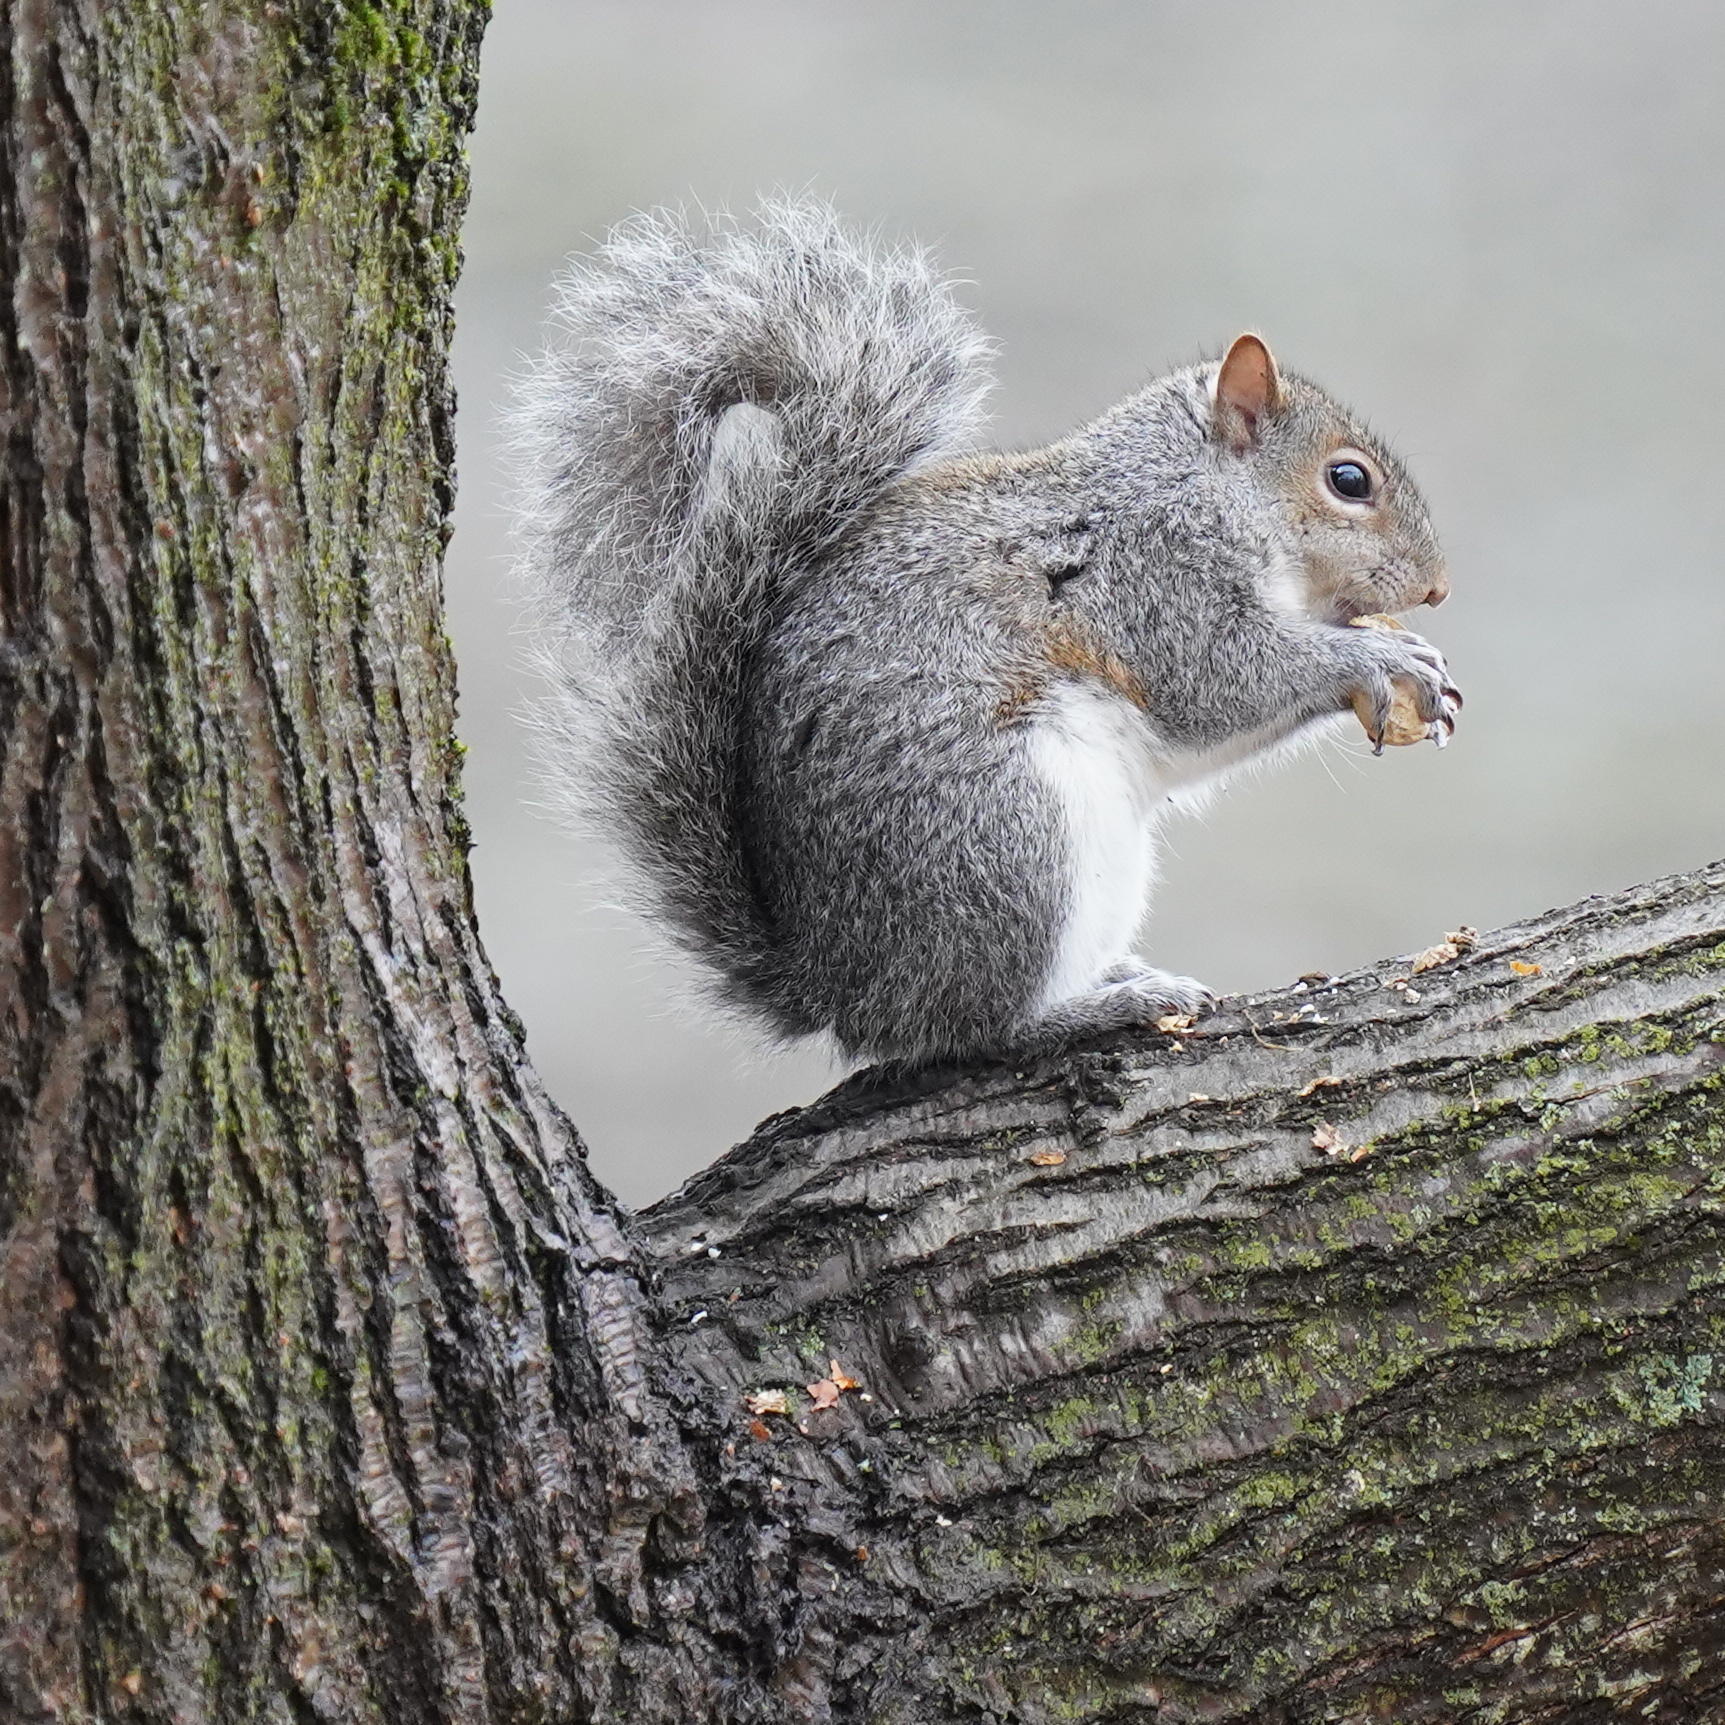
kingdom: Animalia
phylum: Chordata
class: Mammalia
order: Rodentia
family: Sciuridae
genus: Sciurus
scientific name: Sciurus carolinensis
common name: Eastern gray squirrel
